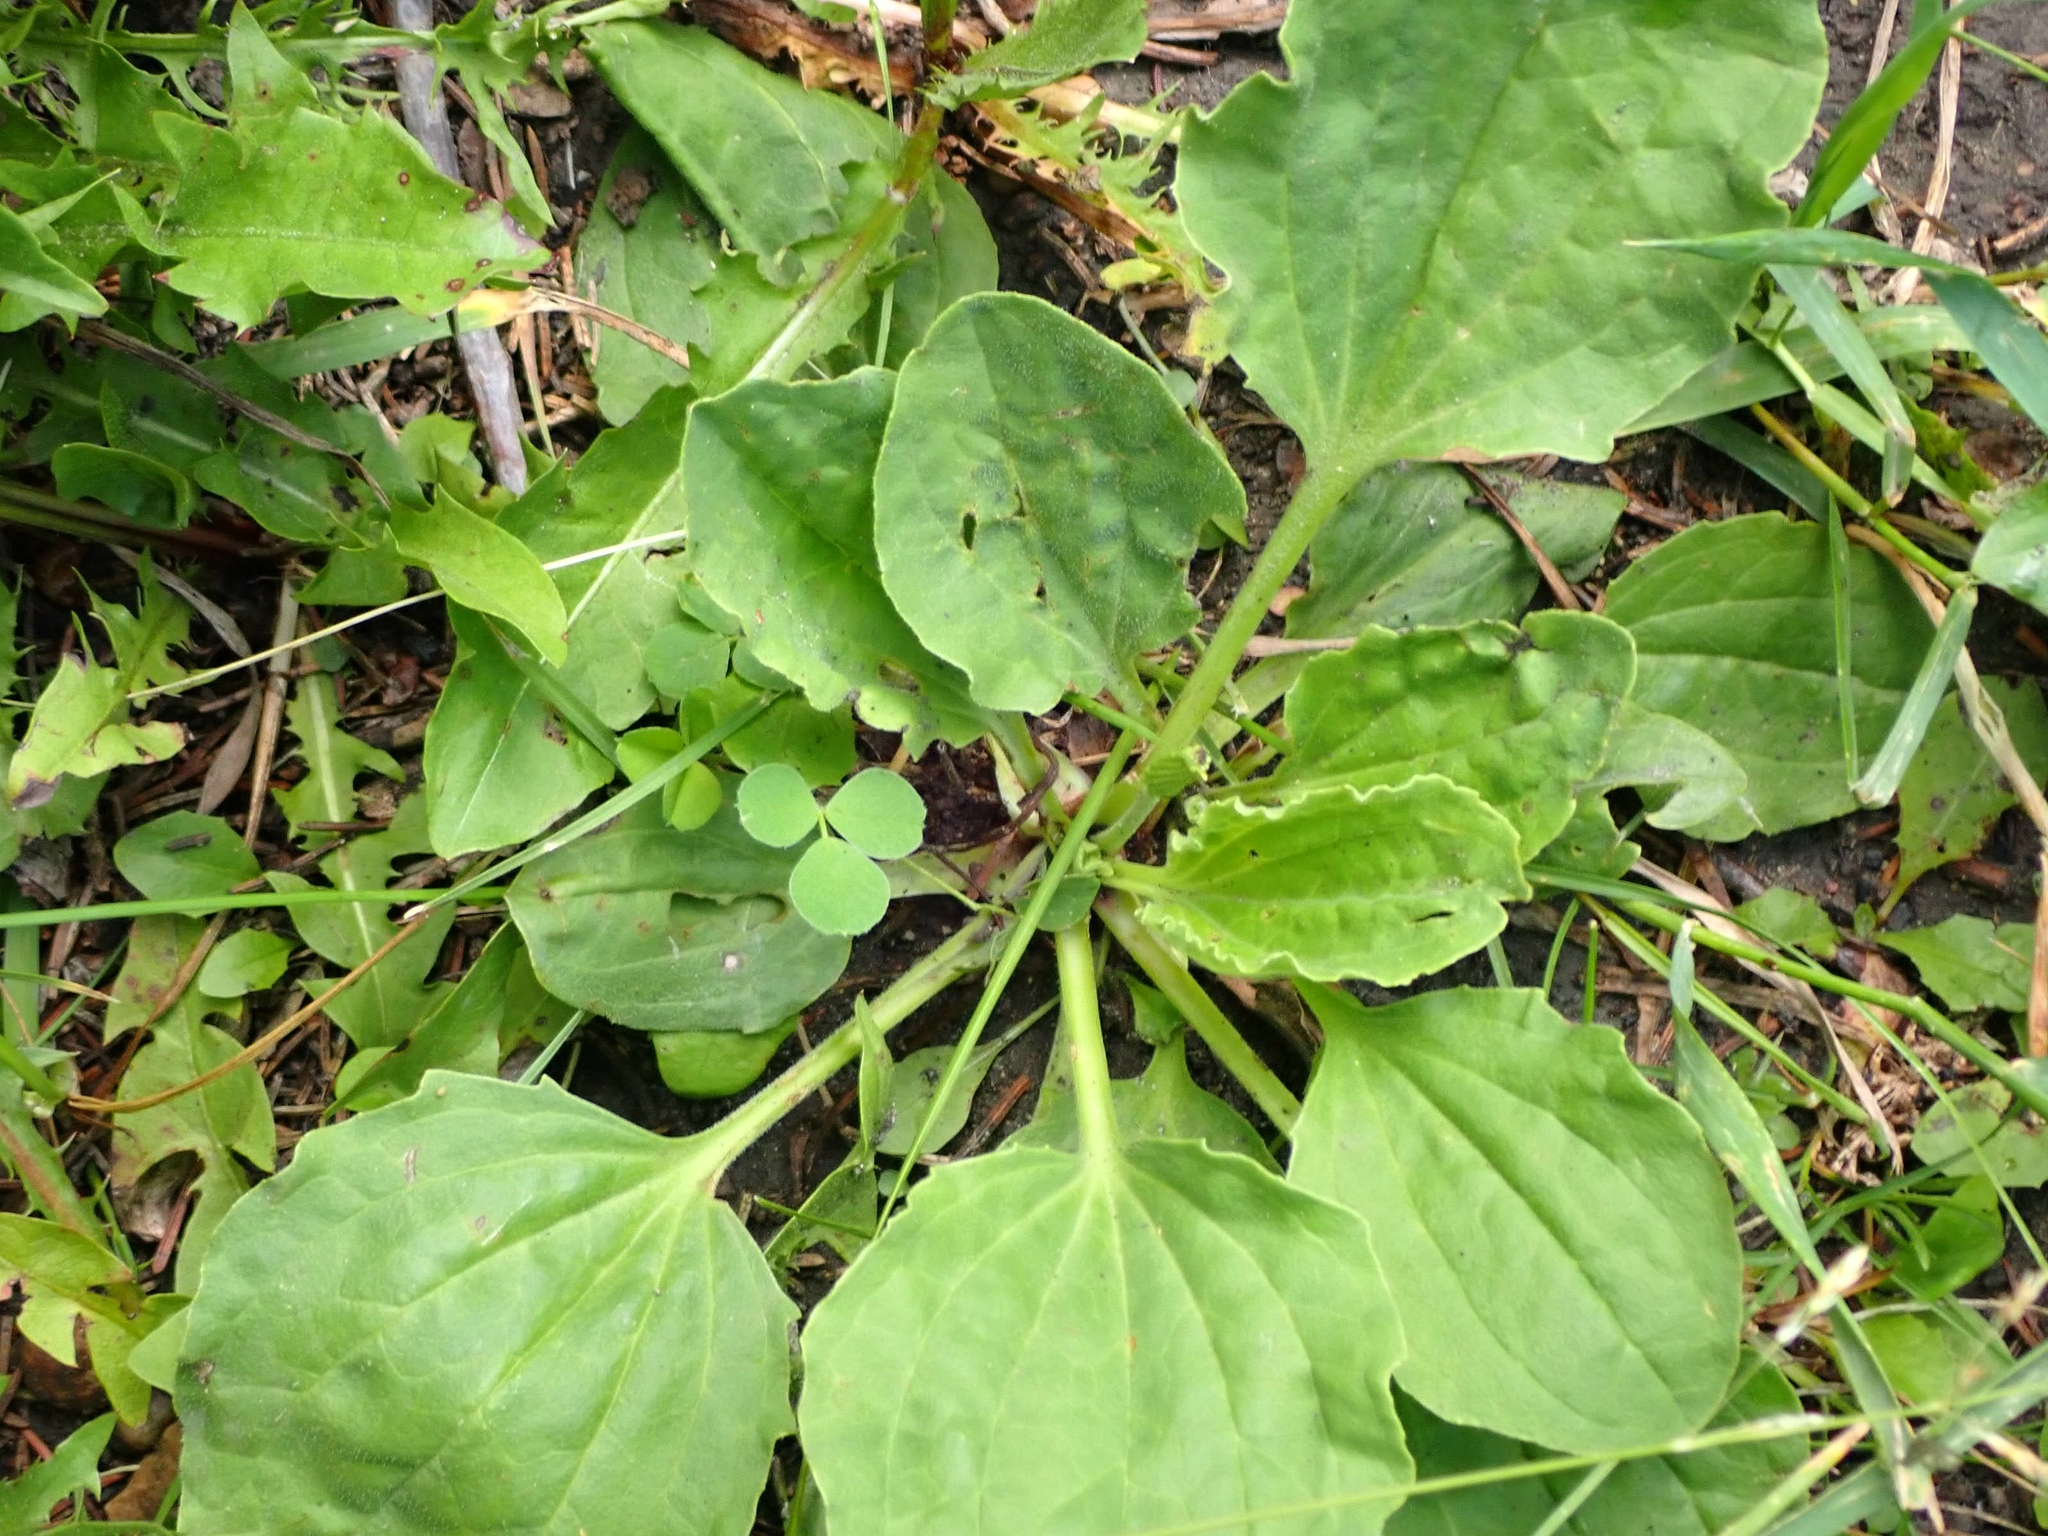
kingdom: Plantae
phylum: Tracheophyta
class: Magnoliopsida
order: Lamiales
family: Plantaginaceae
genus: Plantago
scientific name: Plantago major
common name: Common plantain
